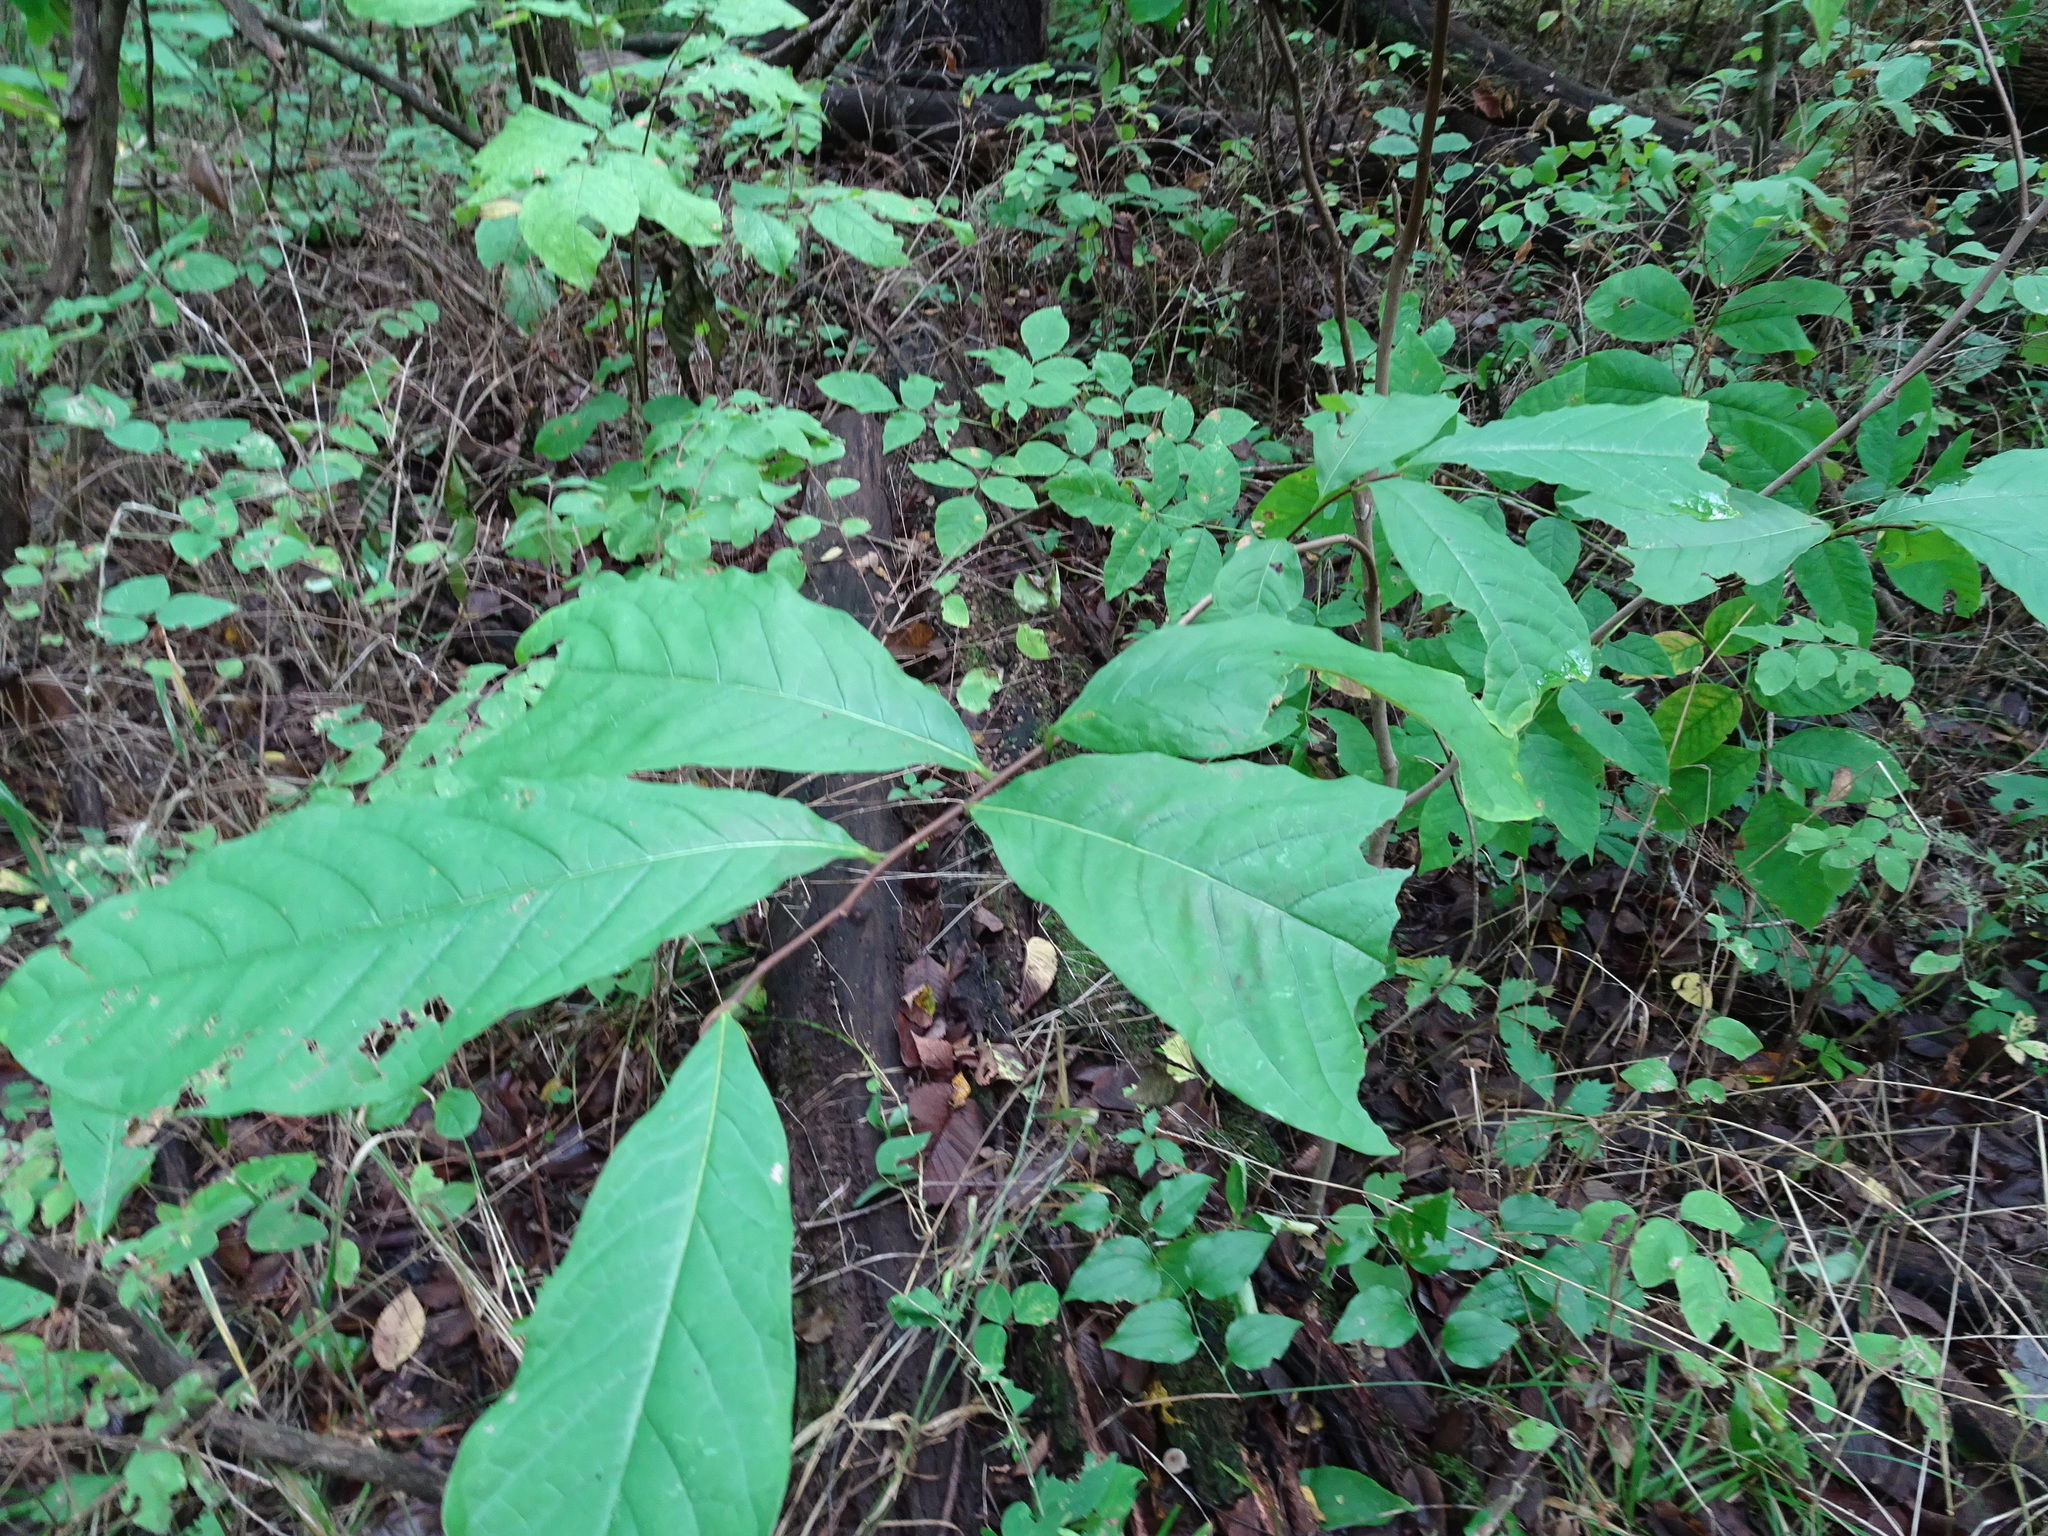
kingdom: Plantae
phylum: Tracheophyta
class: Magnoliopsida
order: Magnoliales
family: Annonaceae
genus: Asimina
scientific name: Asimina triloba
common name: Dog-banana
